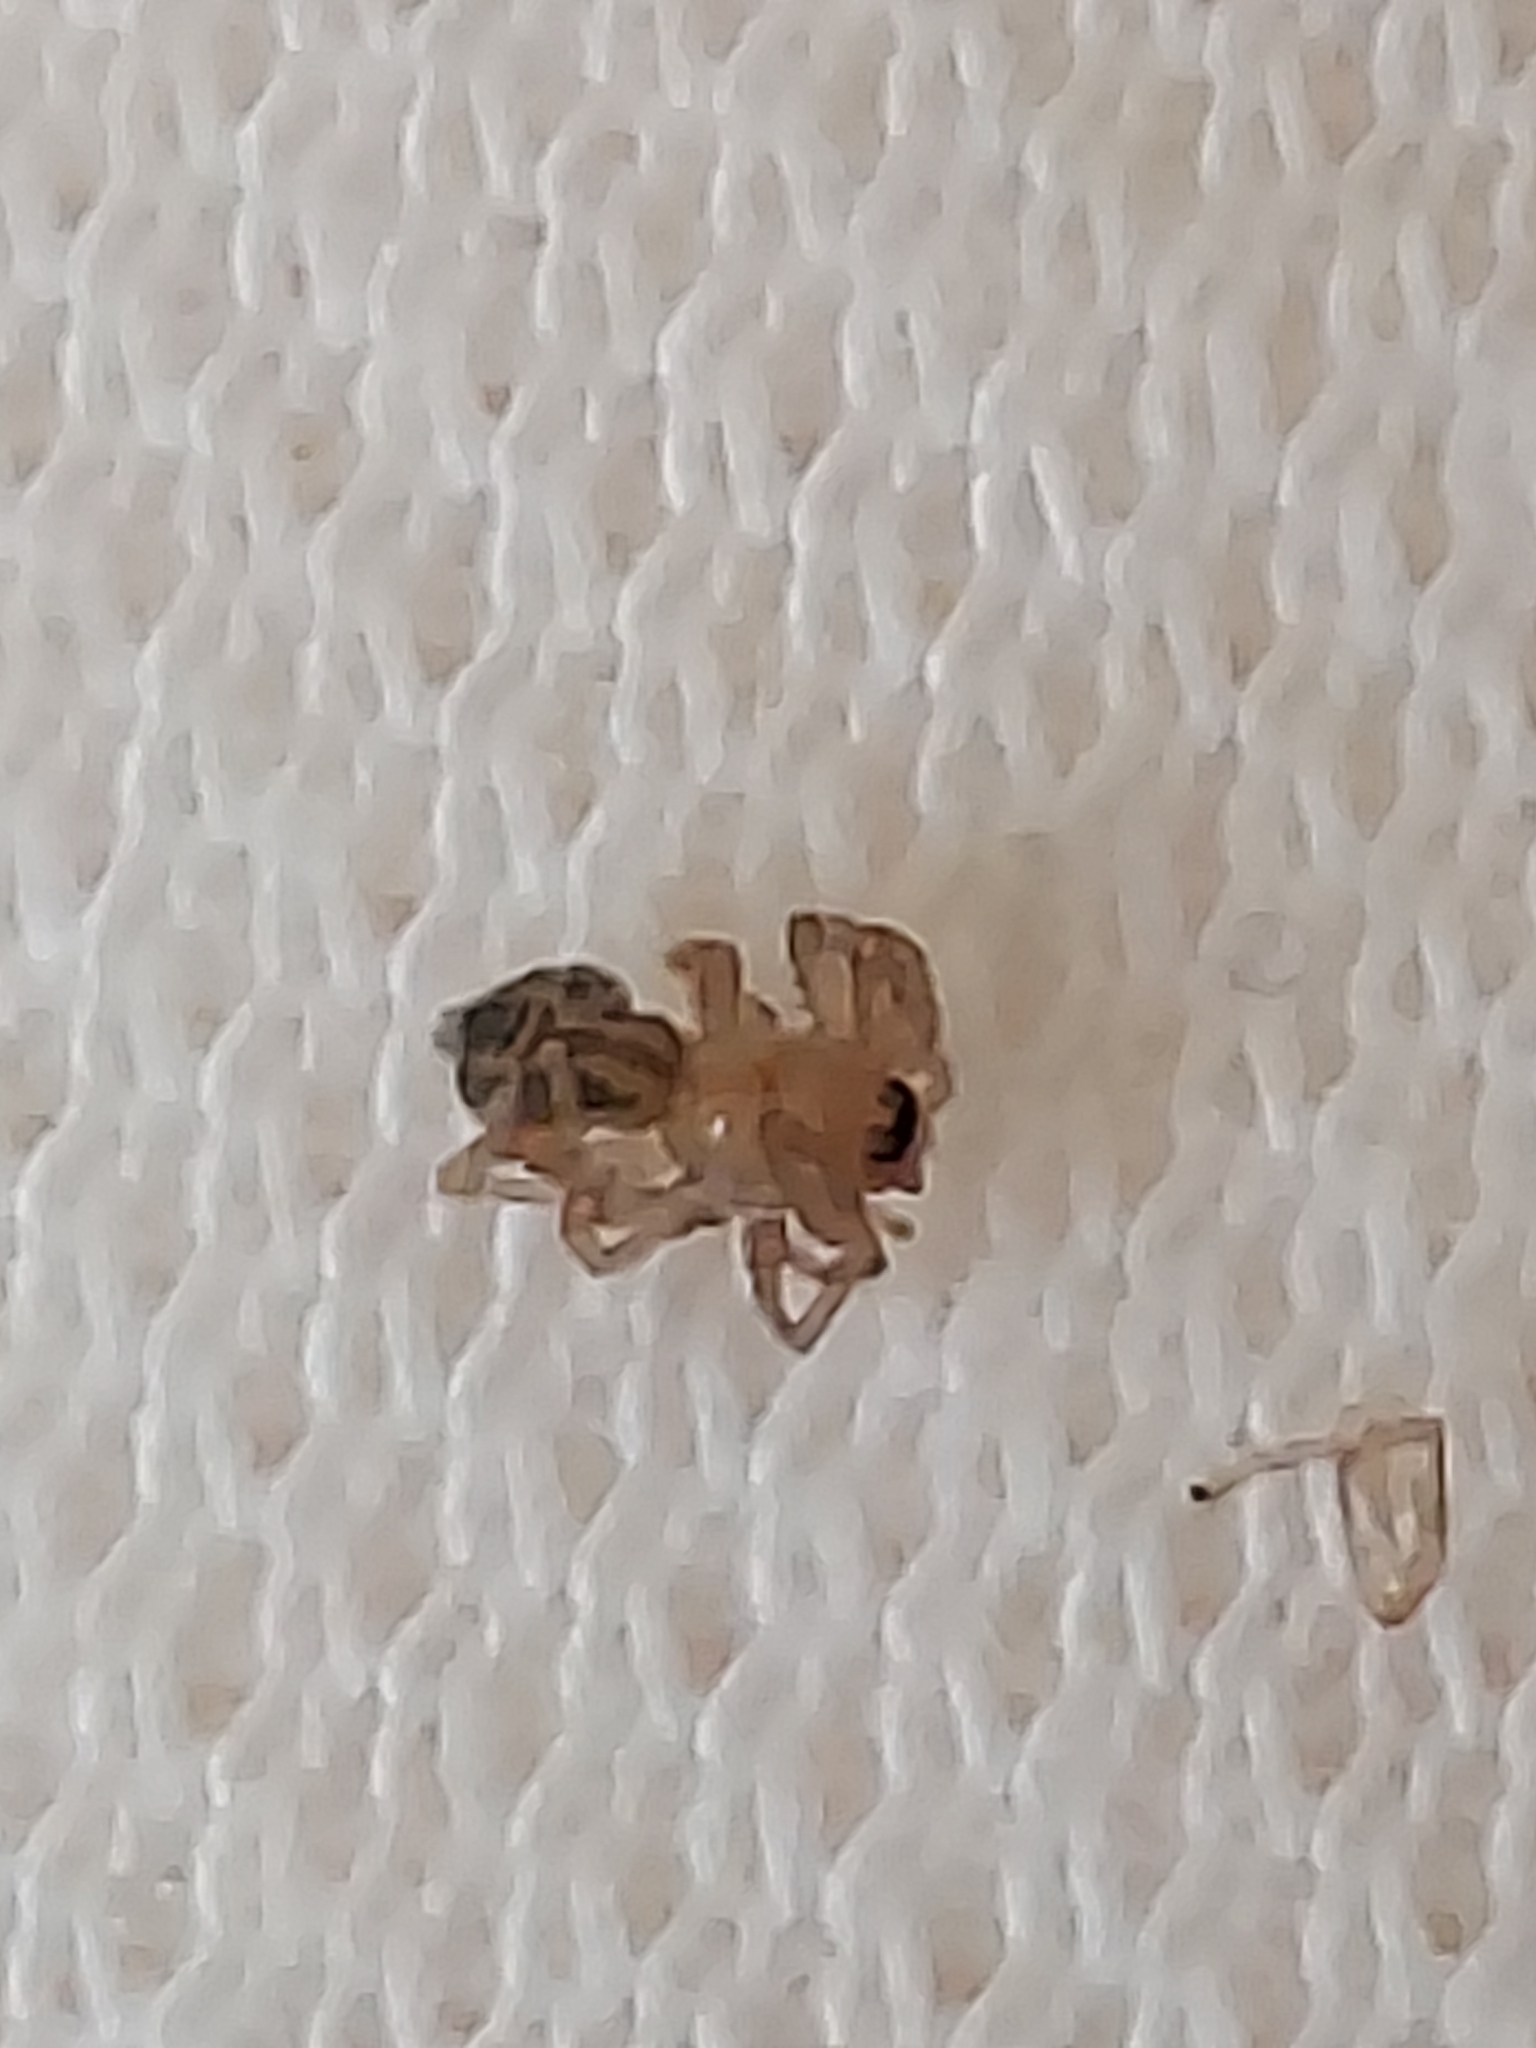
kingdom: Animalia
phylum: Arthropoda
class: Arachnida
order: Araneae
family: Clubionidae
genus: Elaver
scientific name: Elaver excepta
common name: White sac spider
